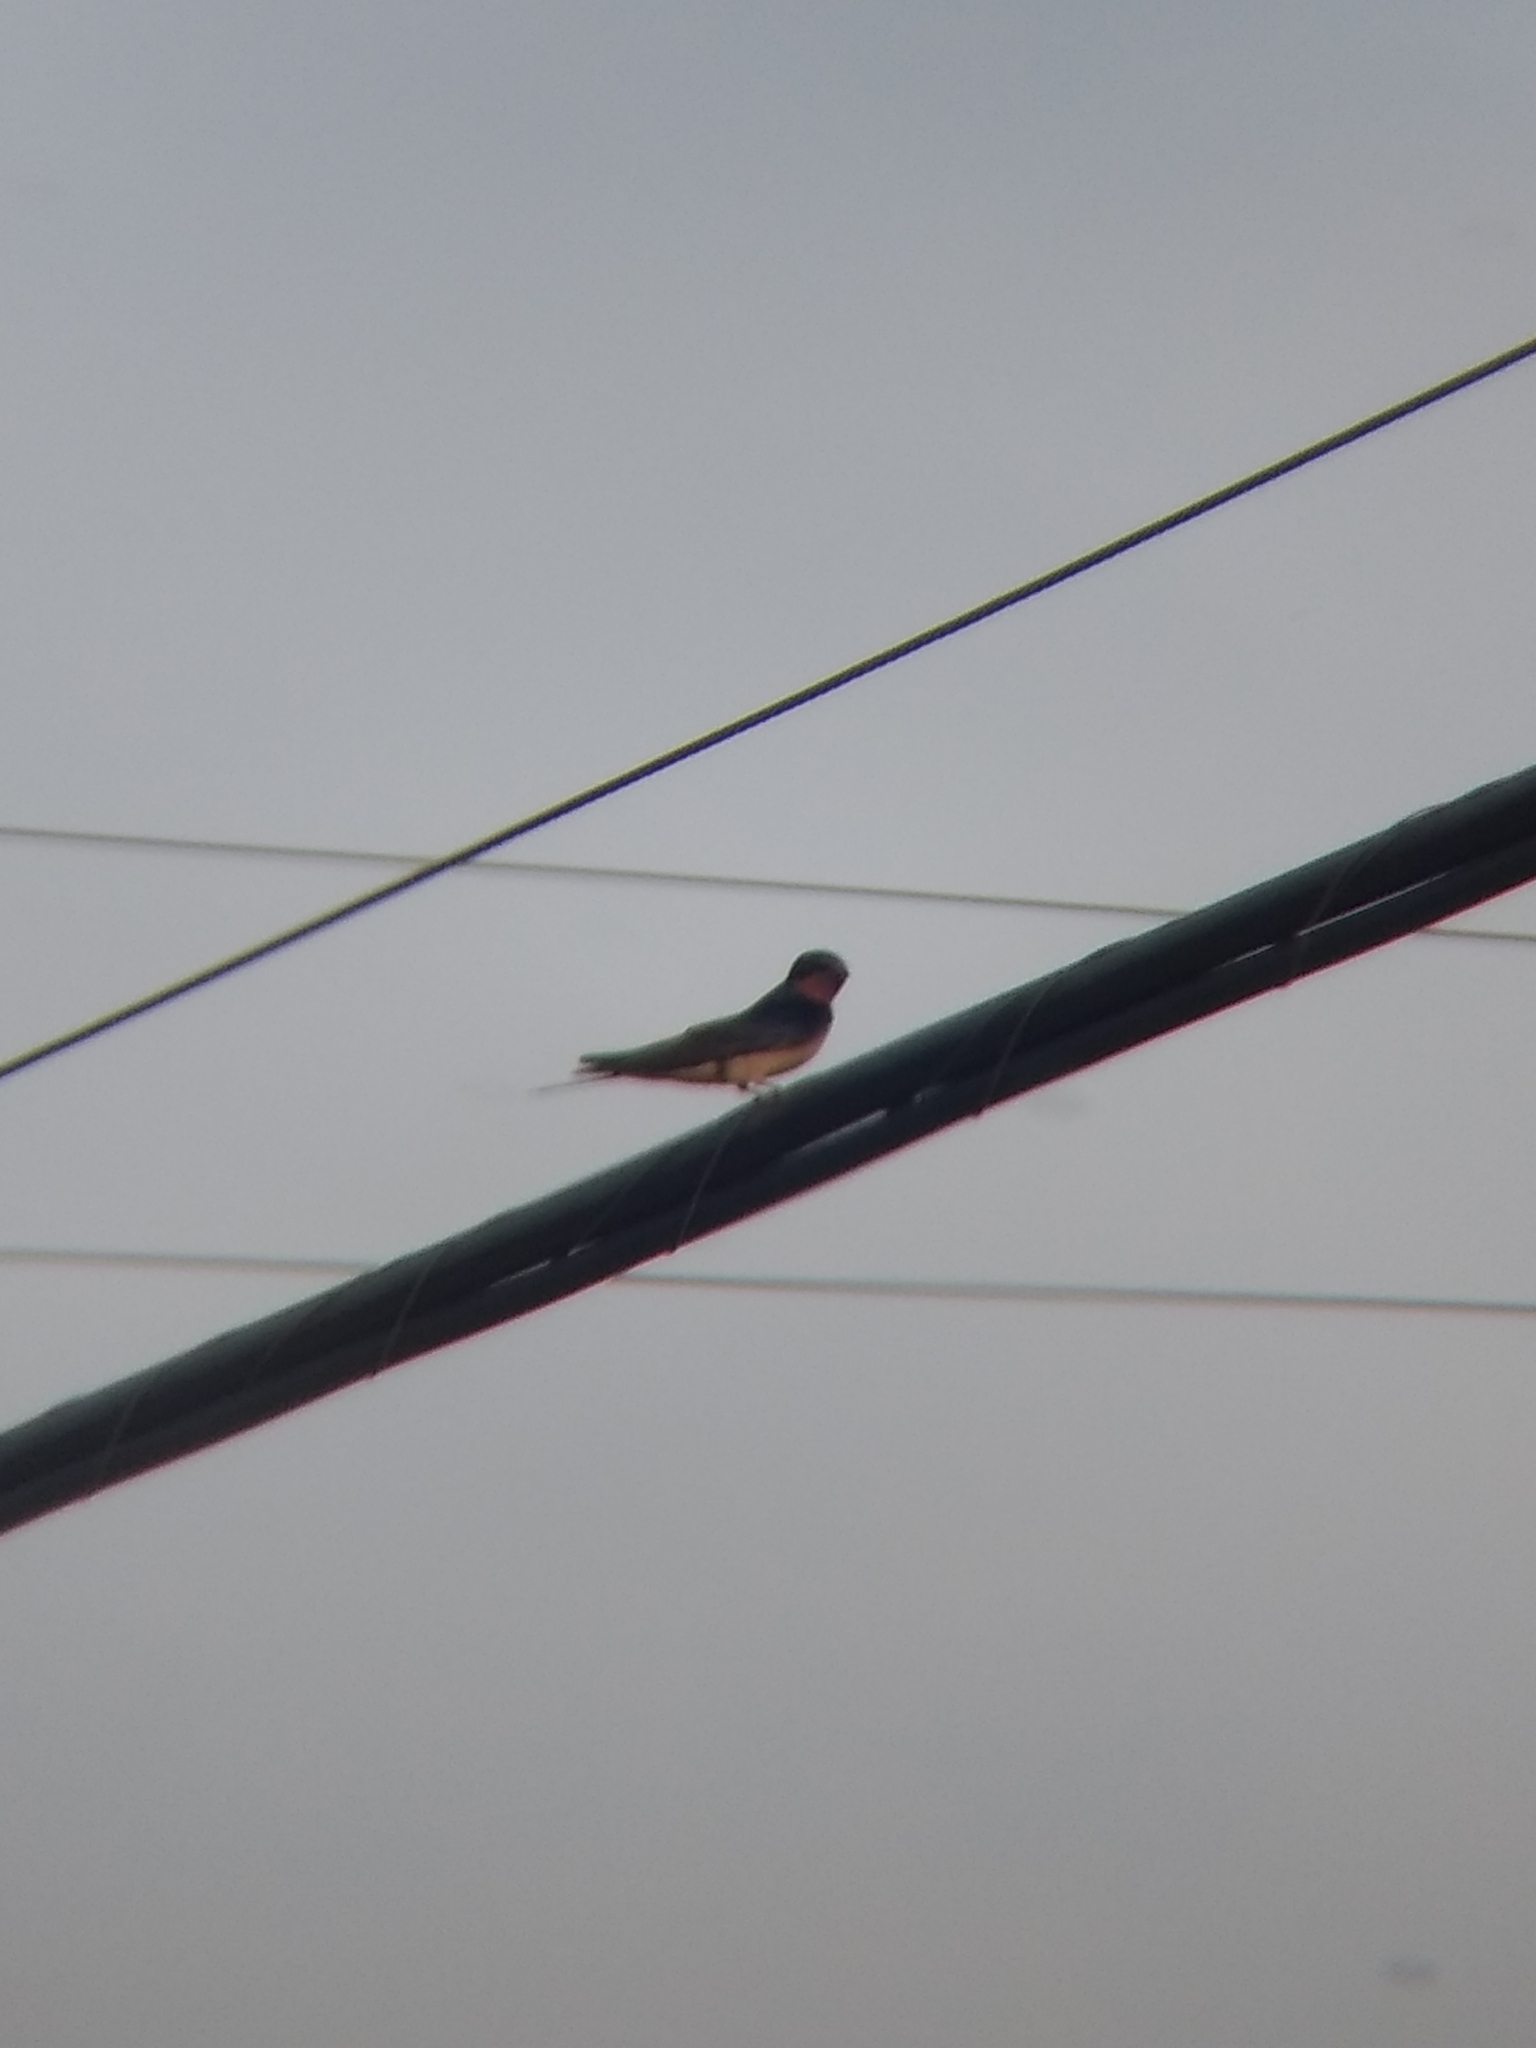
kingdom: Animalia
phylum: Chordata
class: Aves
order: Passeriformes
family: Hirundinidae
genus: Hirundo
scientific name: Hirundo rustica
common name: Barn swallow
